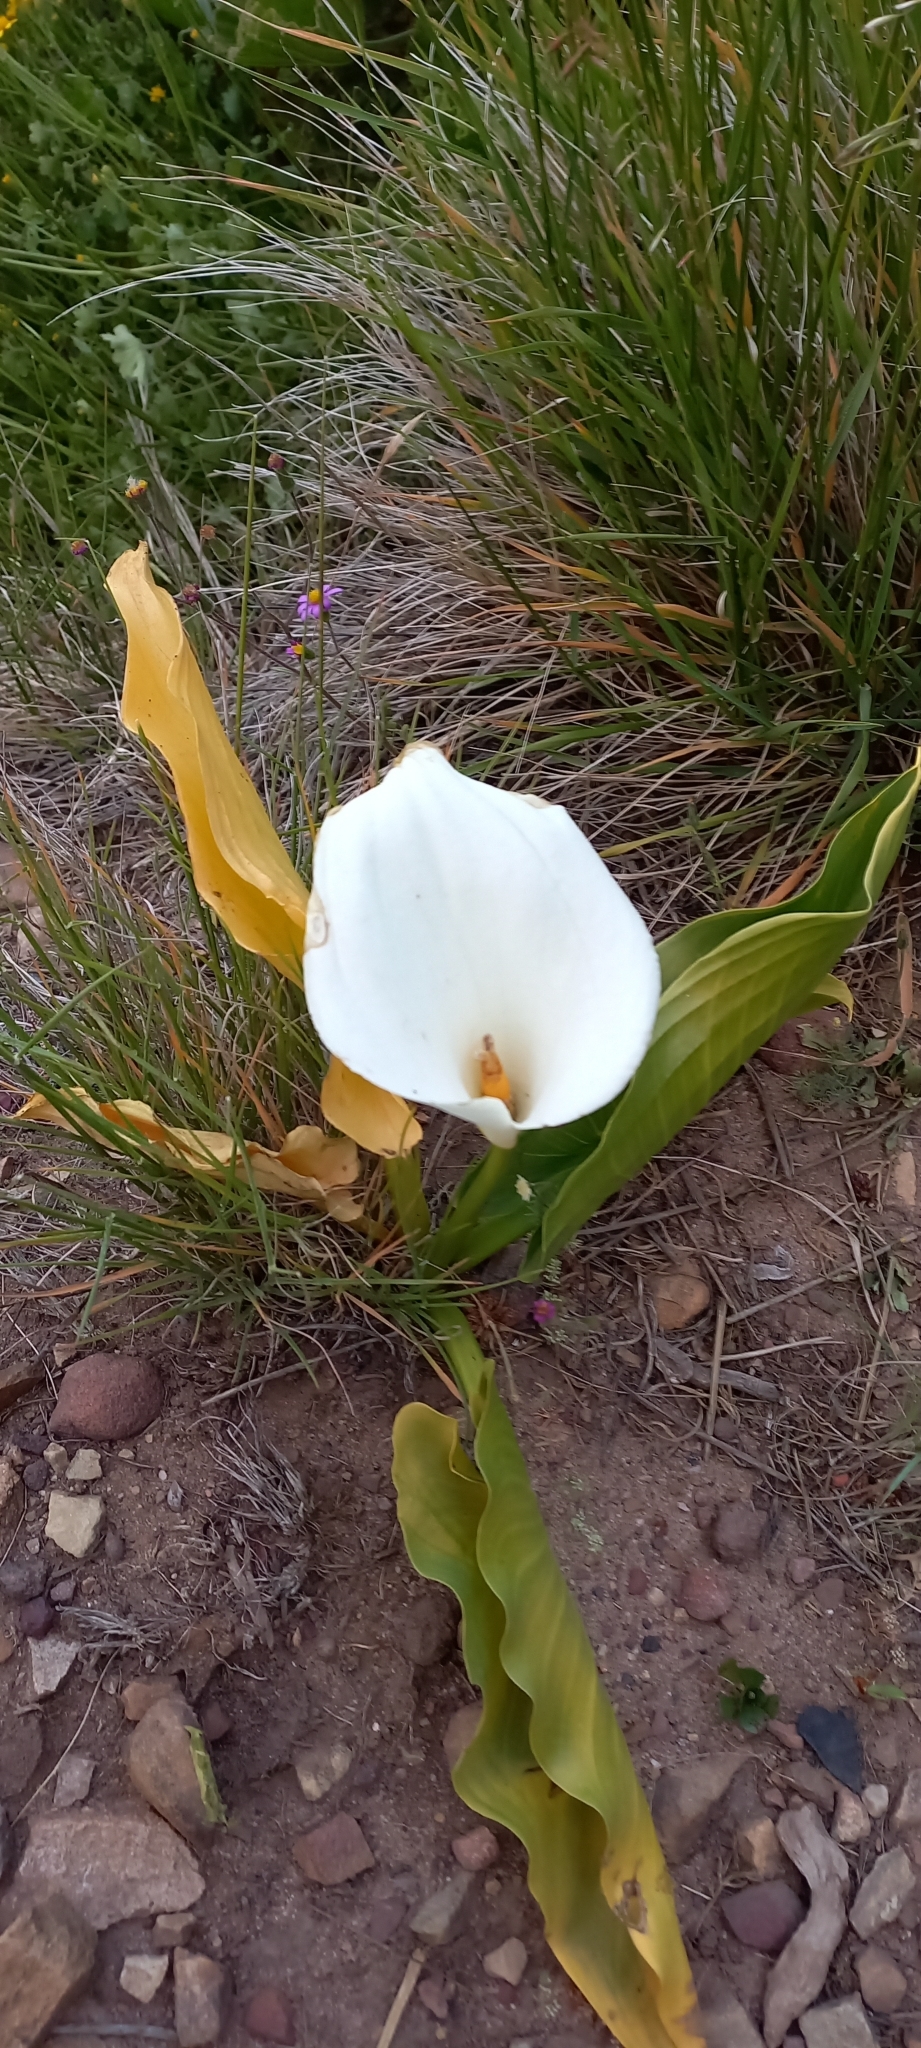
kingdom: Plantae
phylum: Tracheophyta
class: Liliopsida
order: Alismatales
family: Araceae
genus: Zantedeschia
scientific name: Zantedeschia aethiopica
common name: Altar-lily
